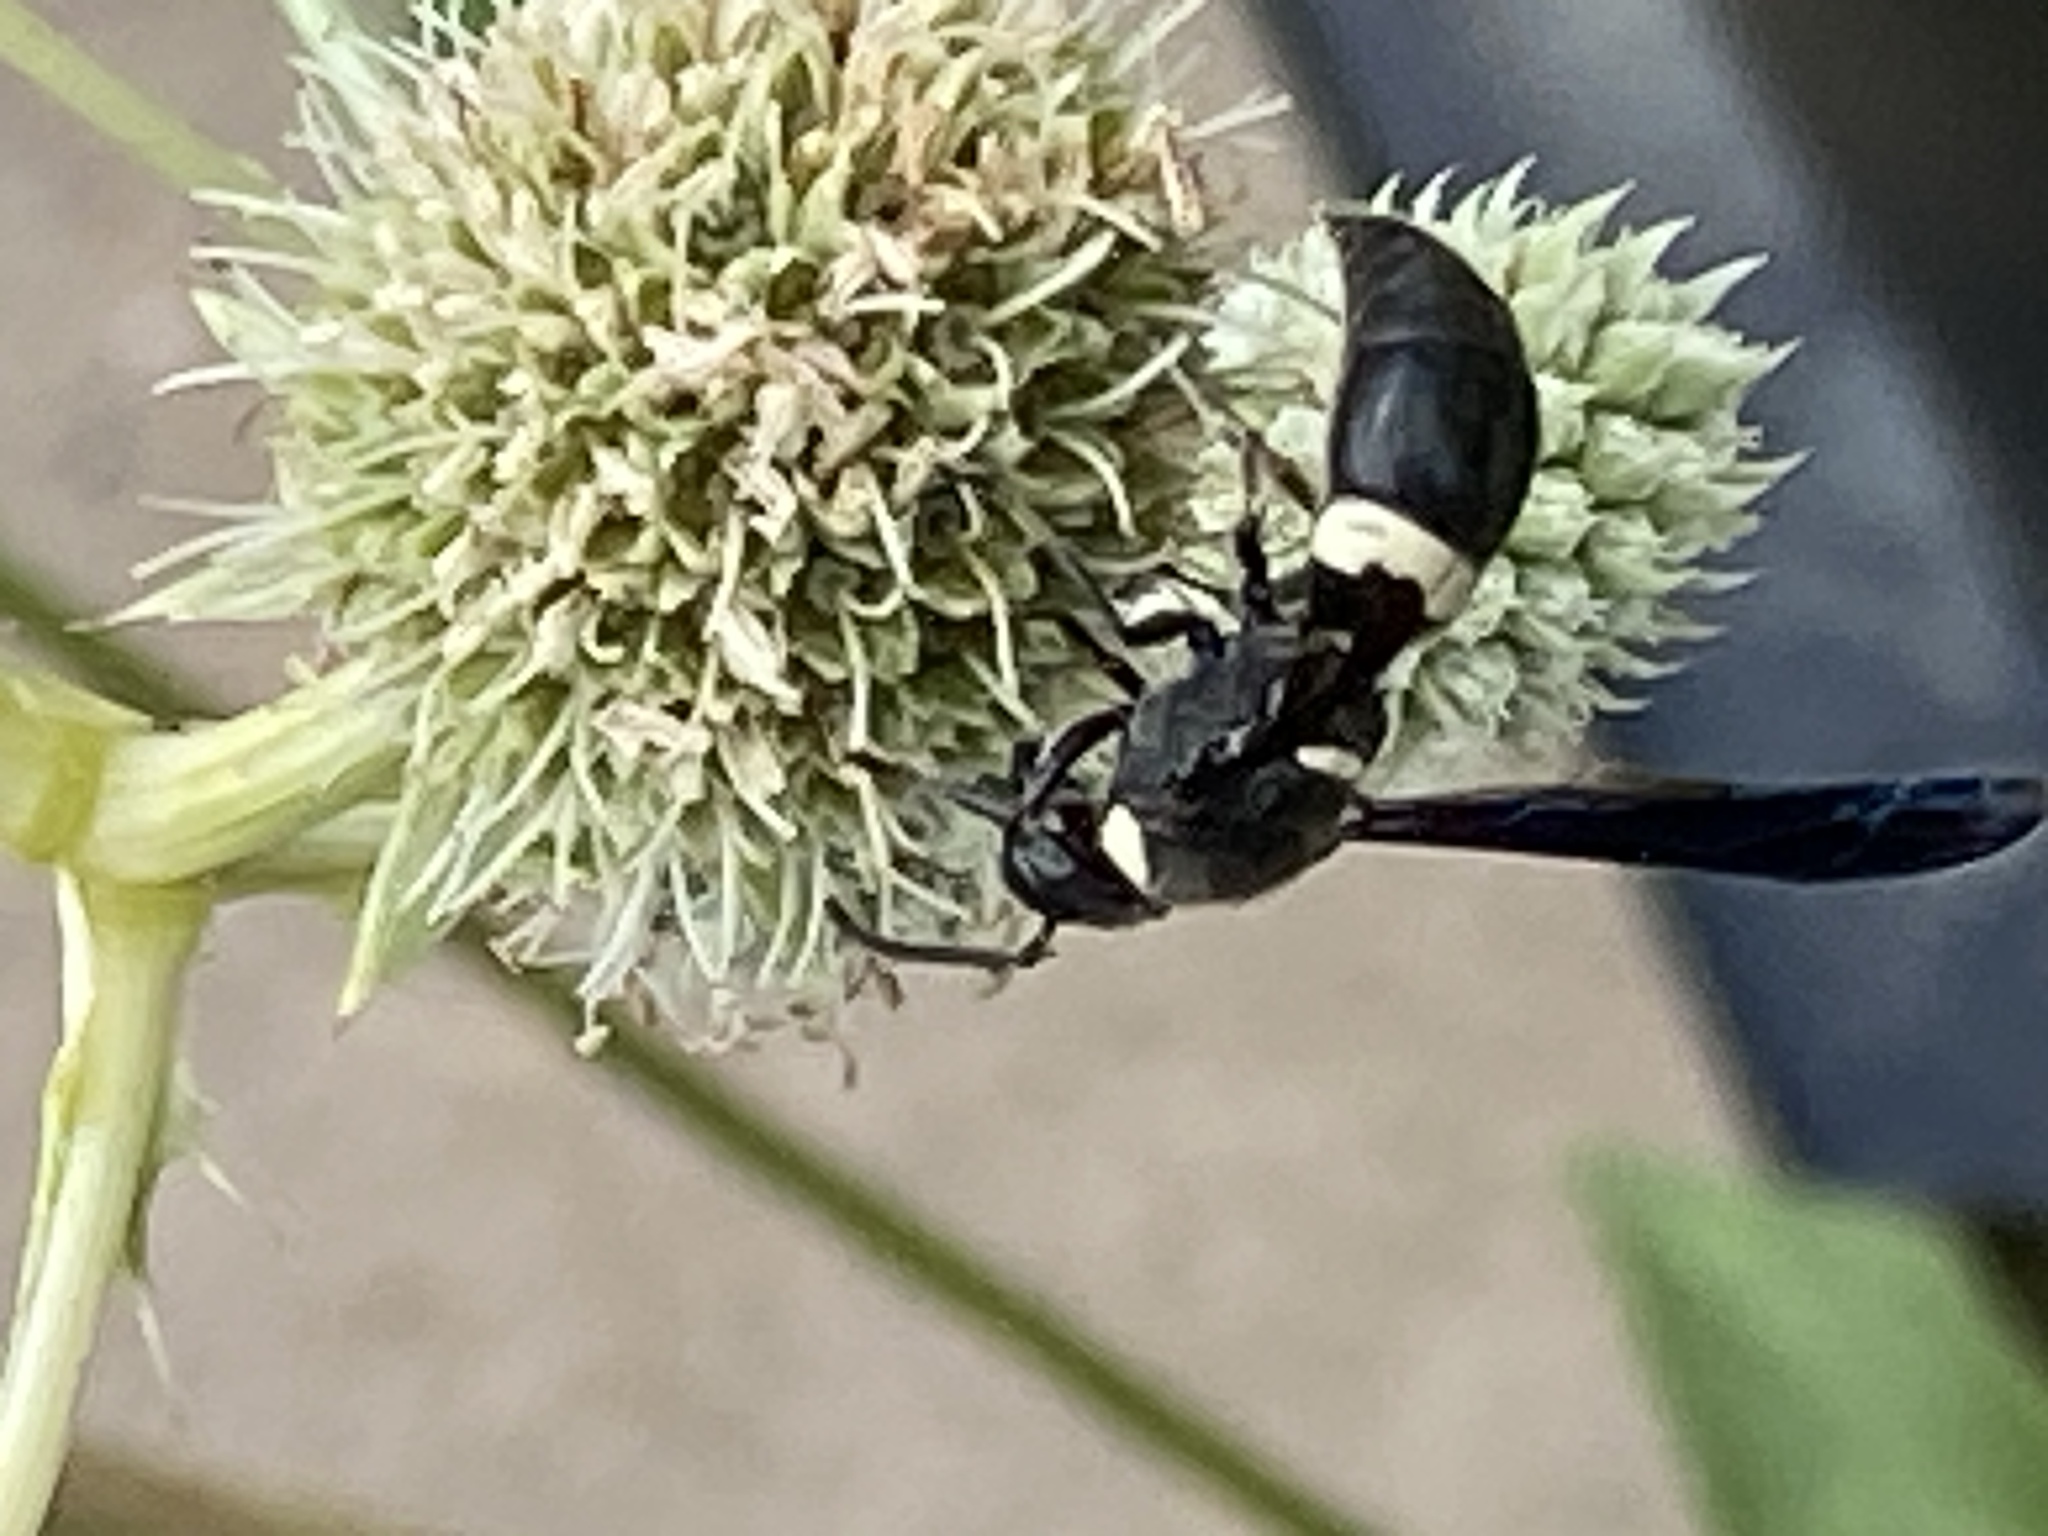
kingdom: Animalia
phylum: Arthropoda
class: Insecta
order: Hymenoptera
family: Eumenidae
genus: Monobia
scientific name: Monobia quadridens
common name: Four-toothed mason wasp
